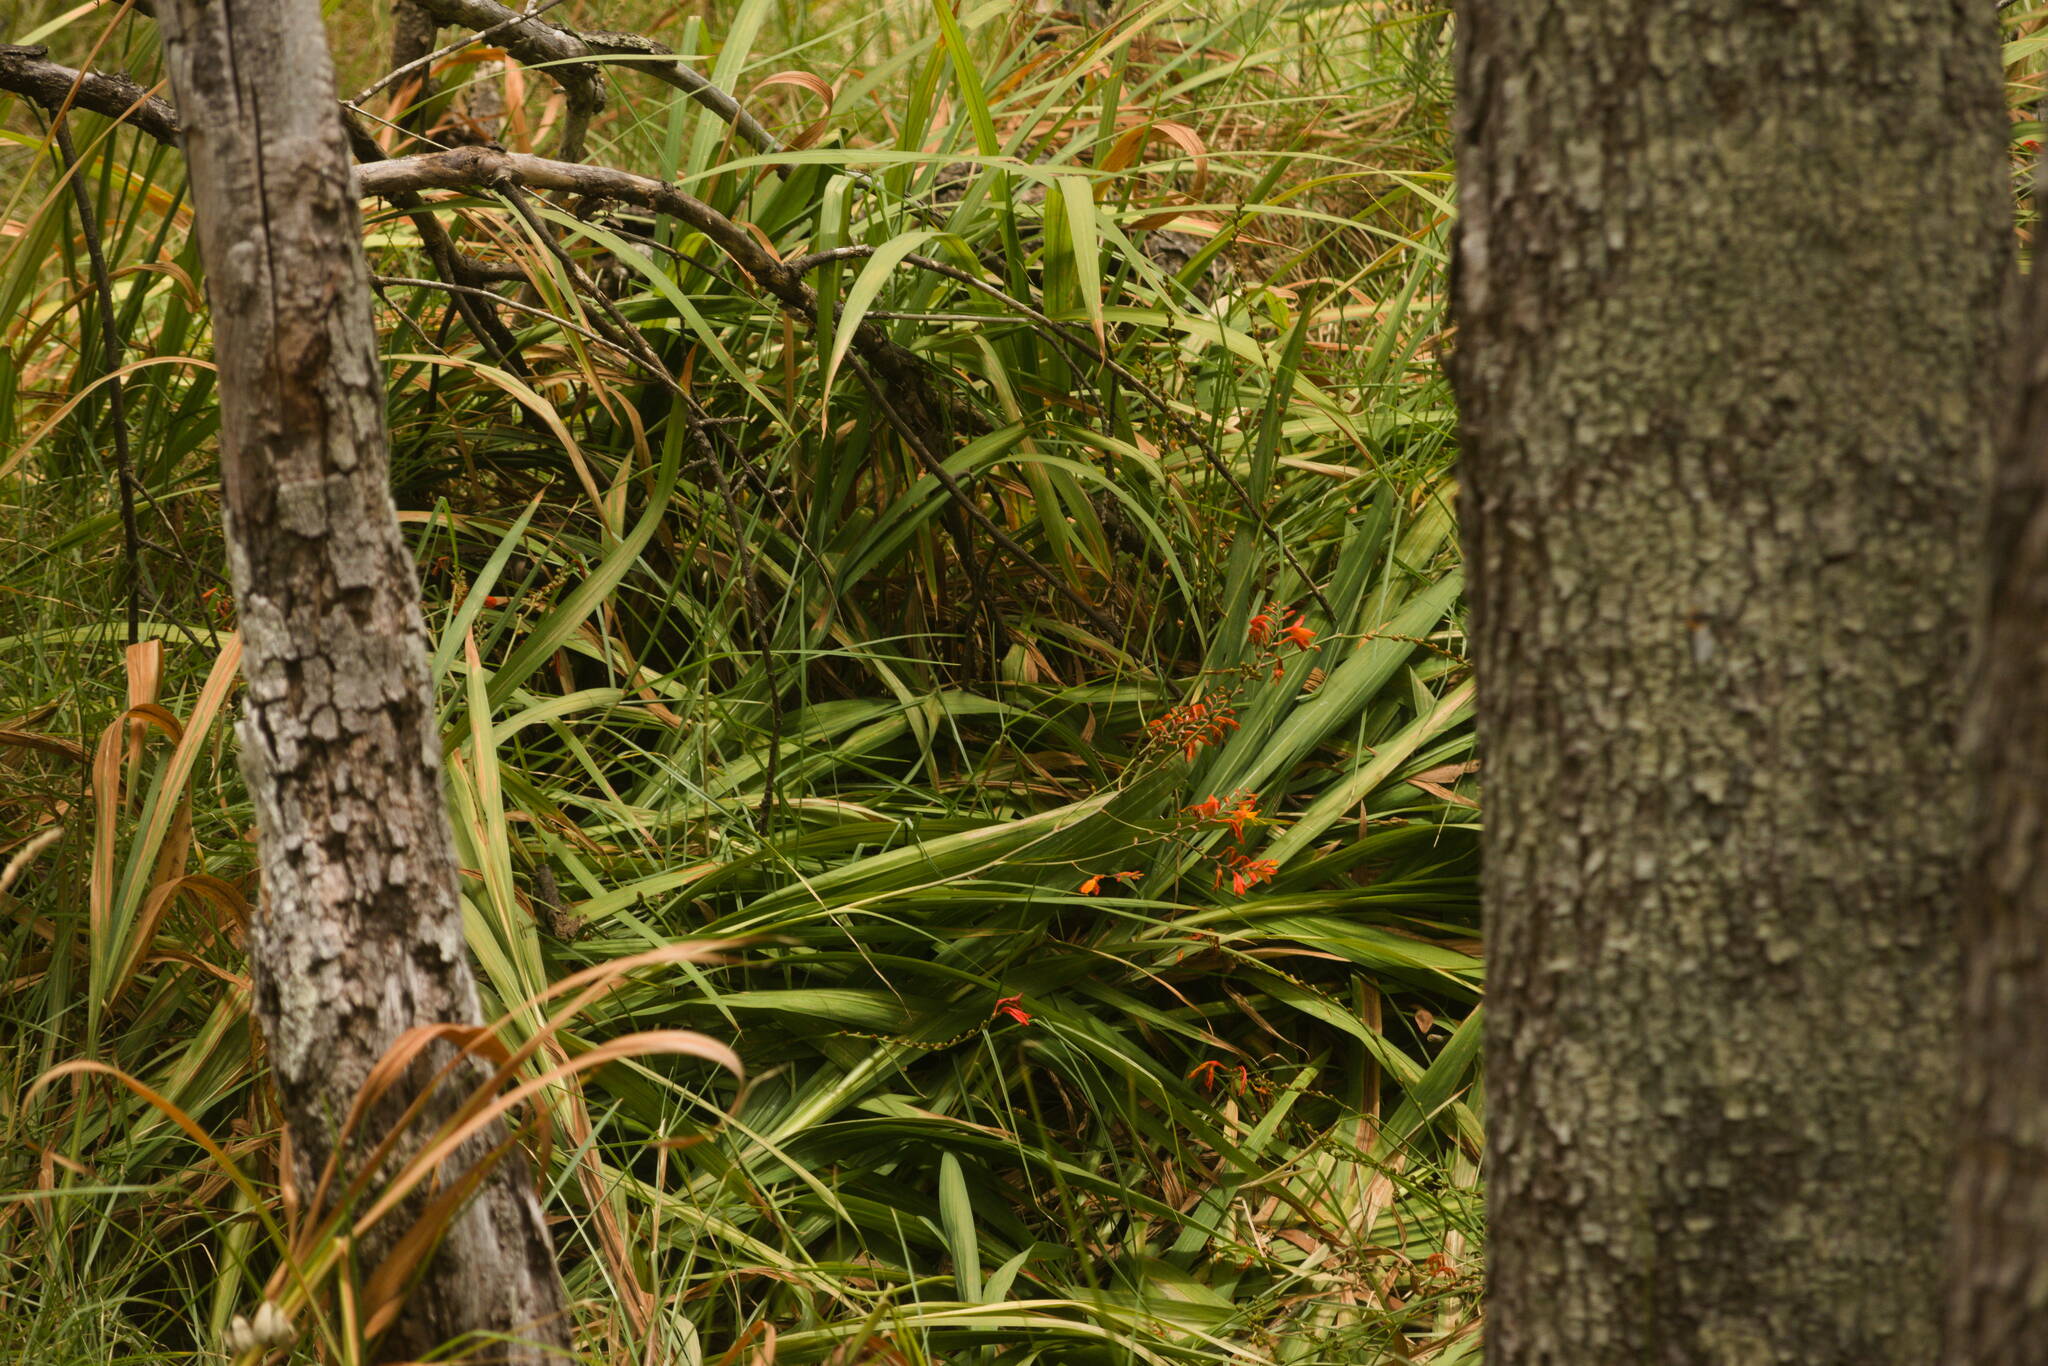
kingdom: Plantae
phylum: Tracheophyta
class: Liliopsida
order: Asparagales
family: Iridaceae
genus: Crocosmia
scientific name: Crocosmia crocosmiiflora
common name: Montbretia
